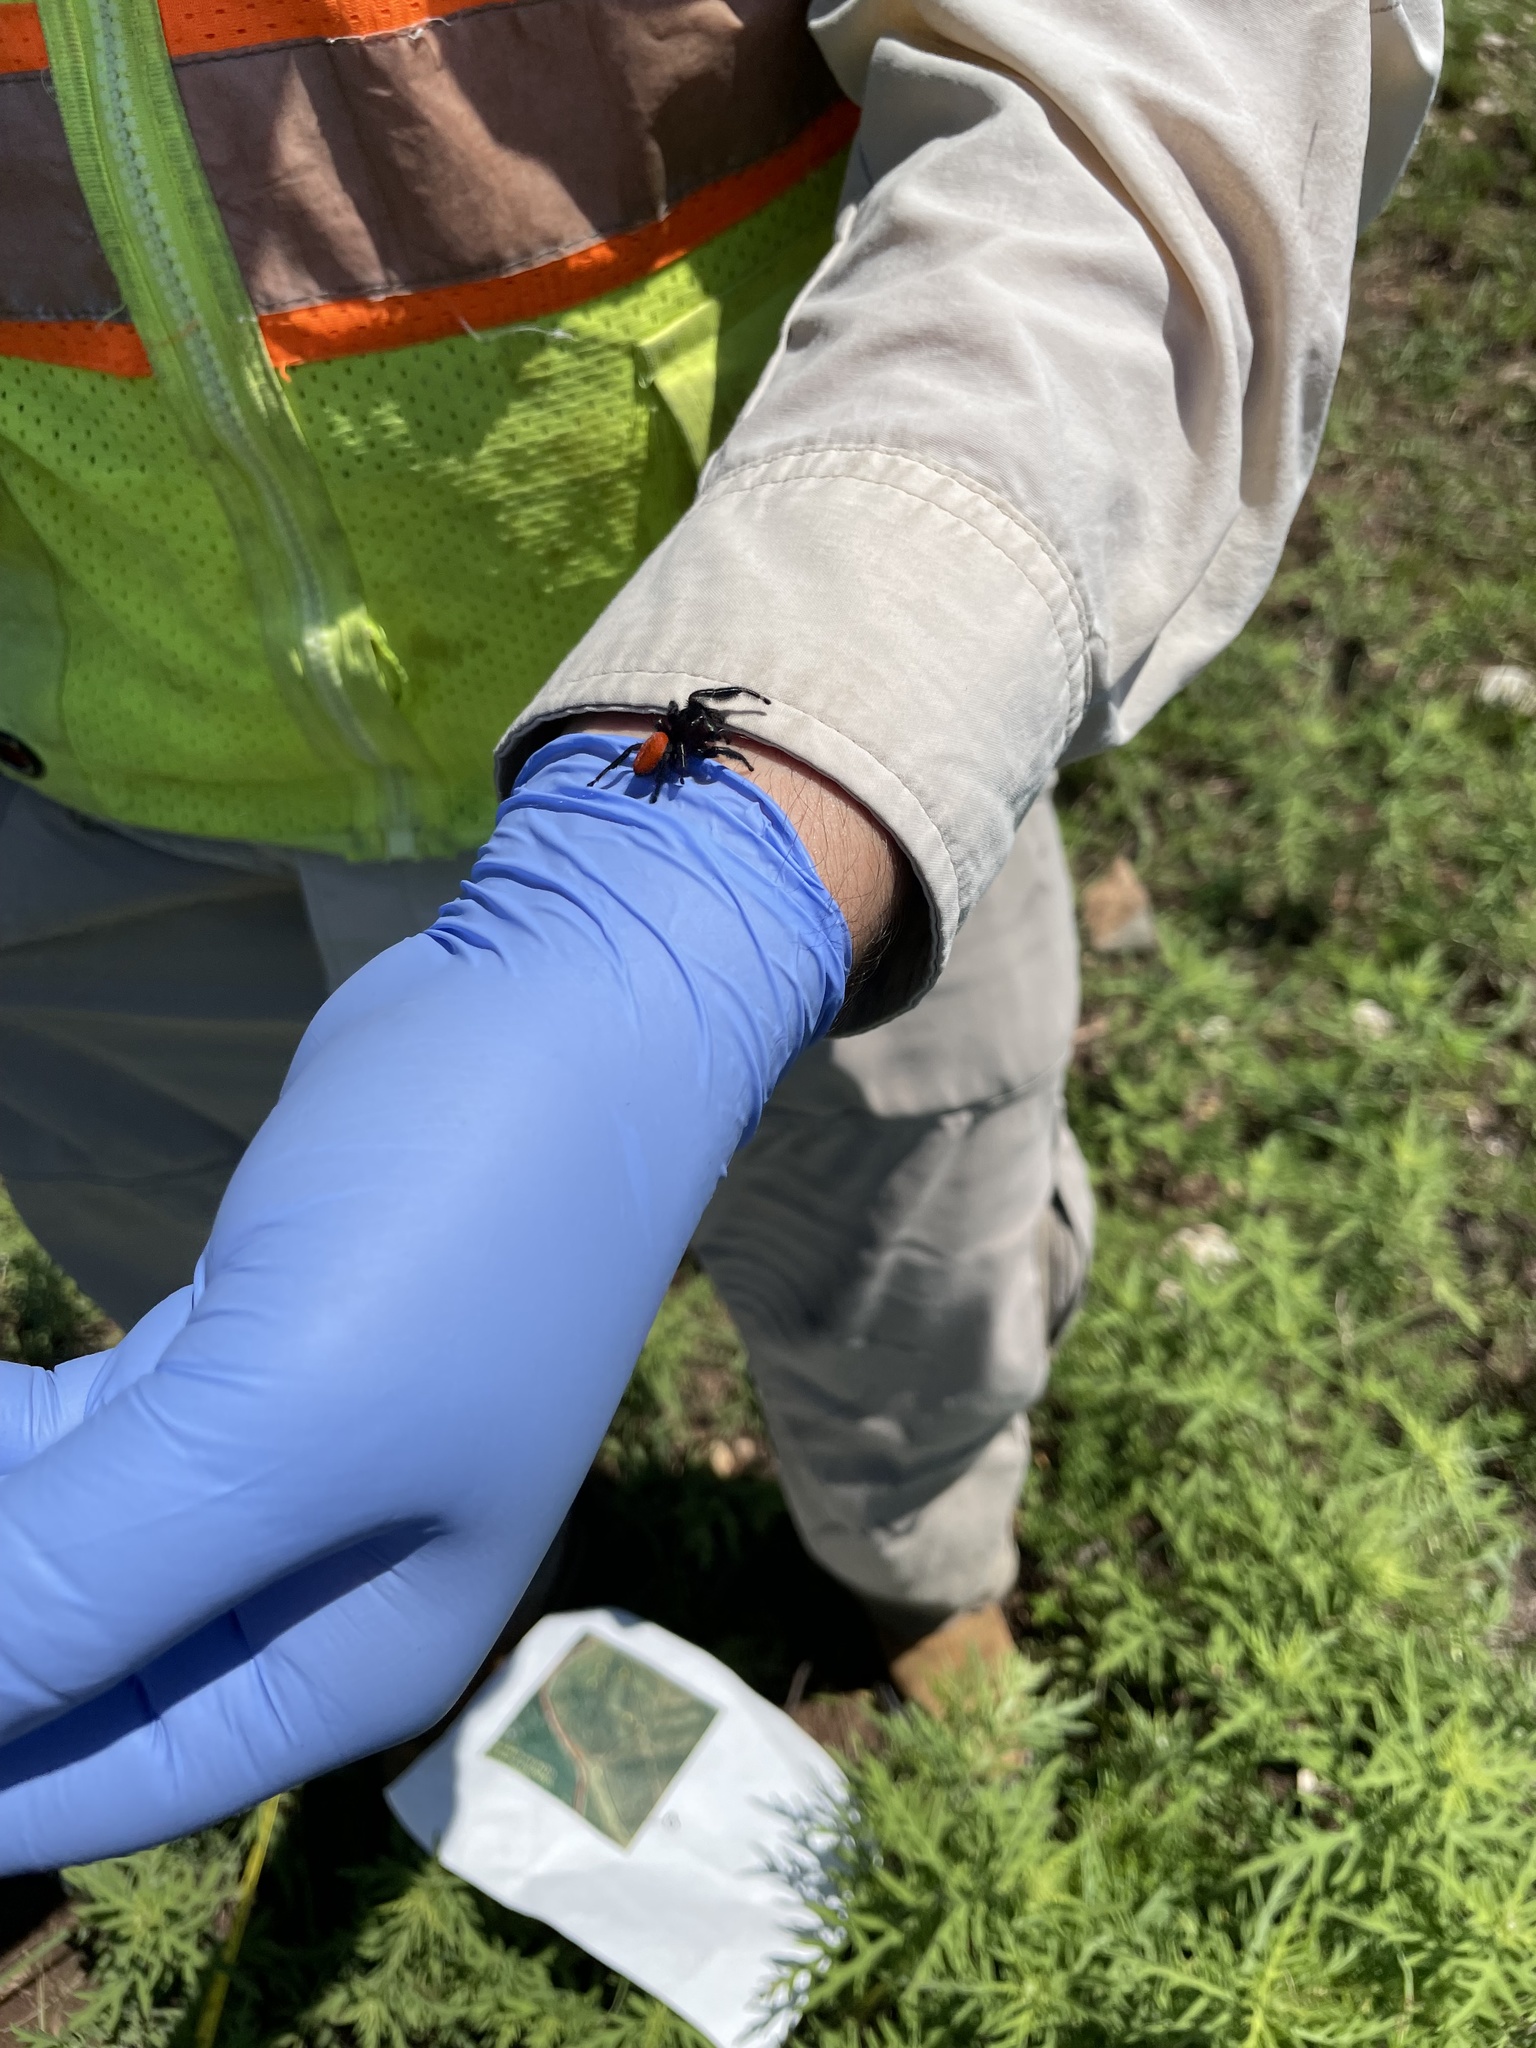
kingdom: Animalia
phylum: Arthropoda
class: Arachnida
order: Araneae
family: Salticidae
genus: Phidippus
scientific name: Phidippus texanus
